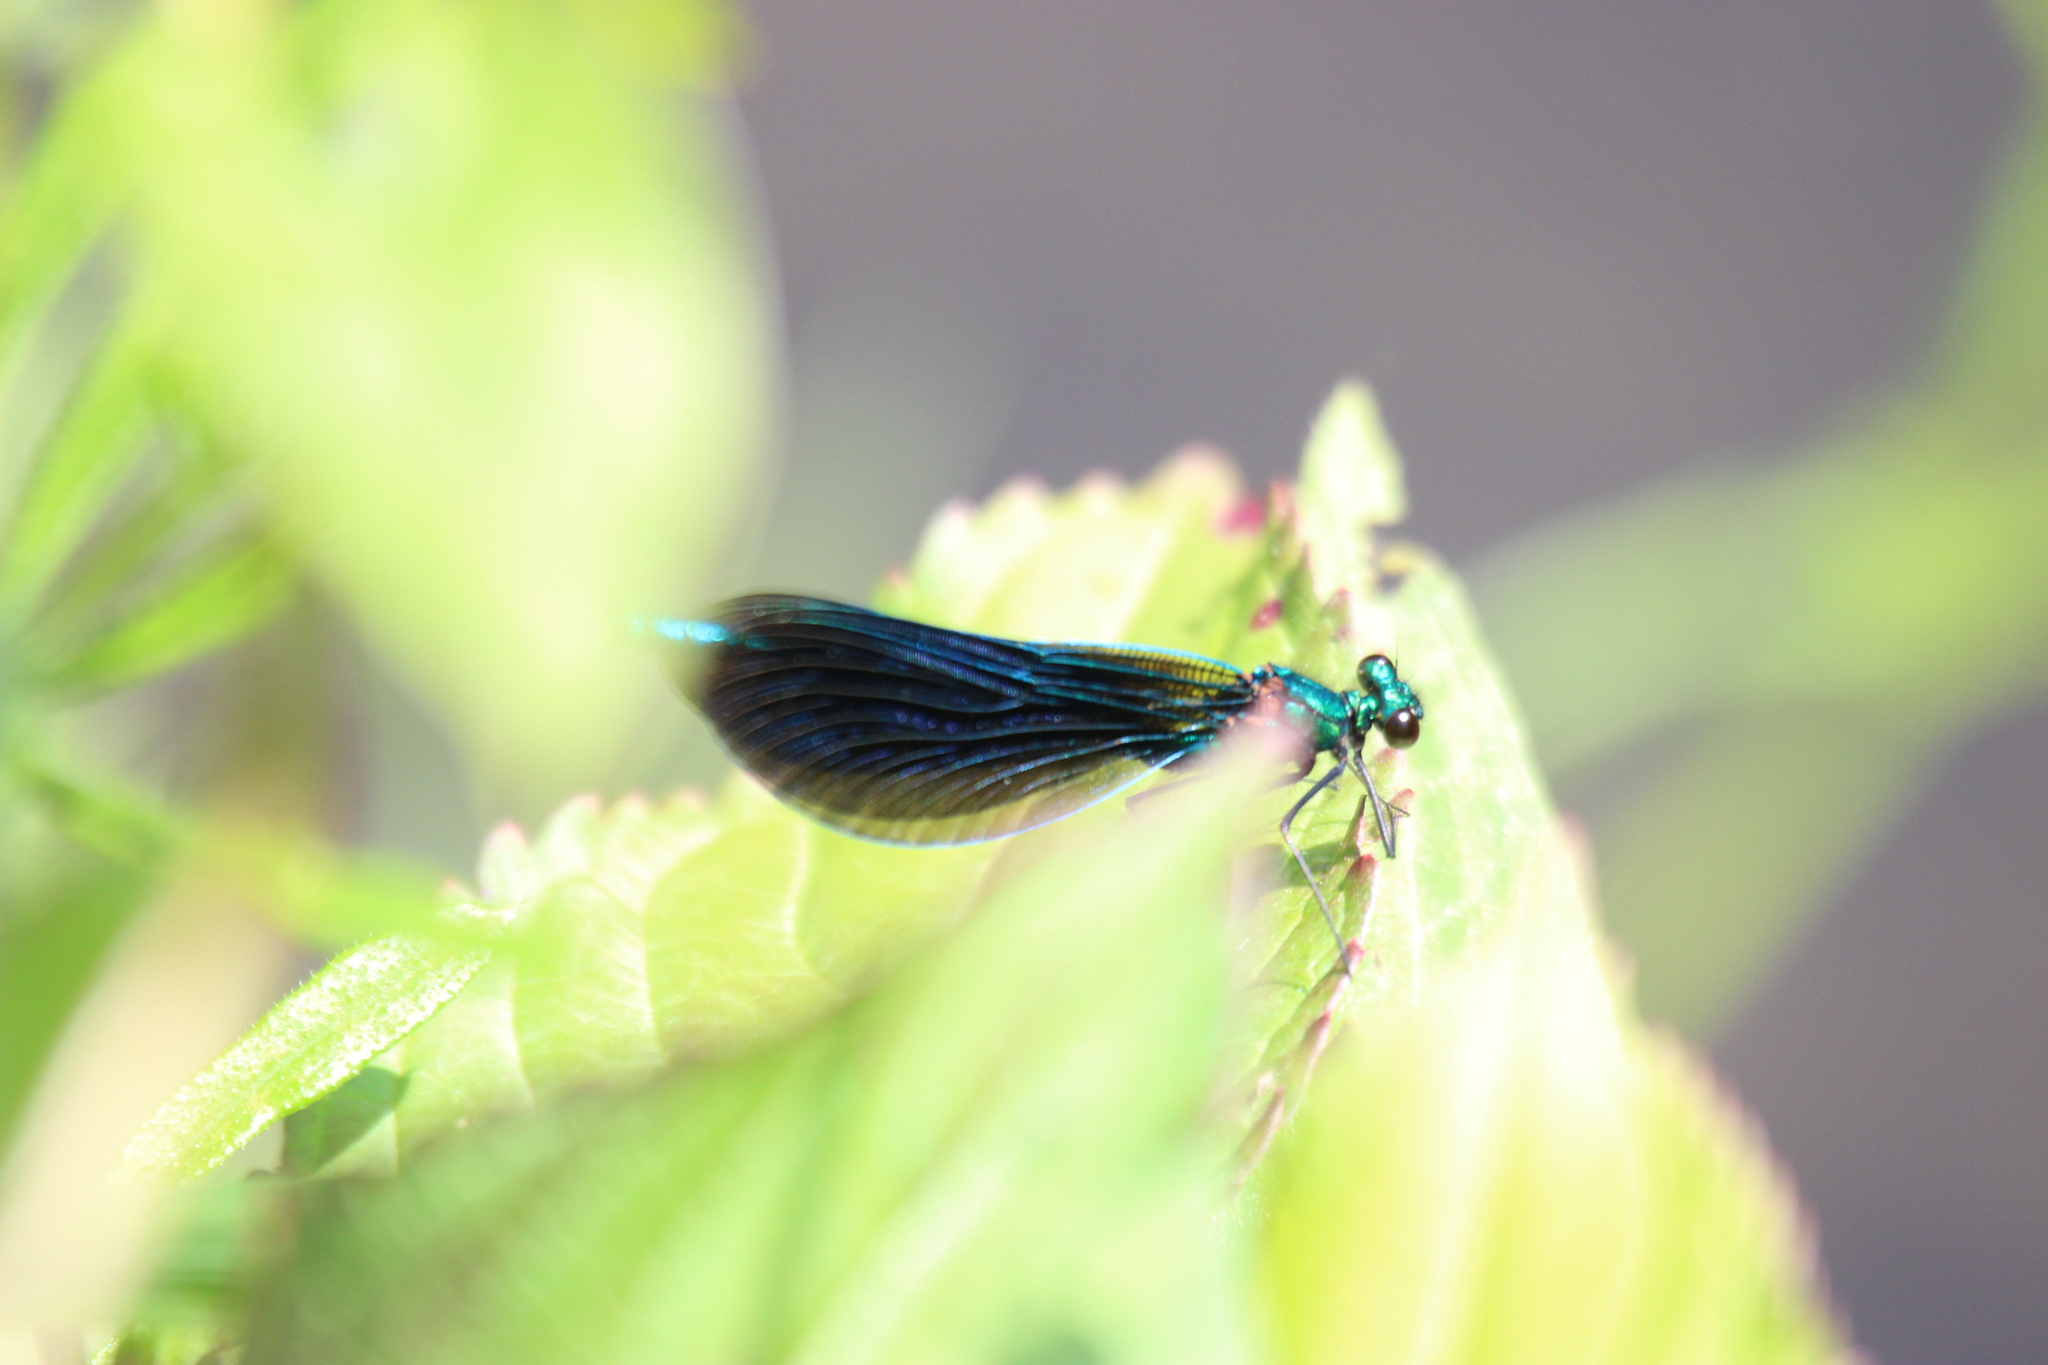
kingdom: Animalia
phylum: Arthropoda
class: Insecta
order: Odonata
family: Calopterygidae
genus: Calopteryx
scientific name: Calopteryx virgo
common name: Beautiful demoiselle
